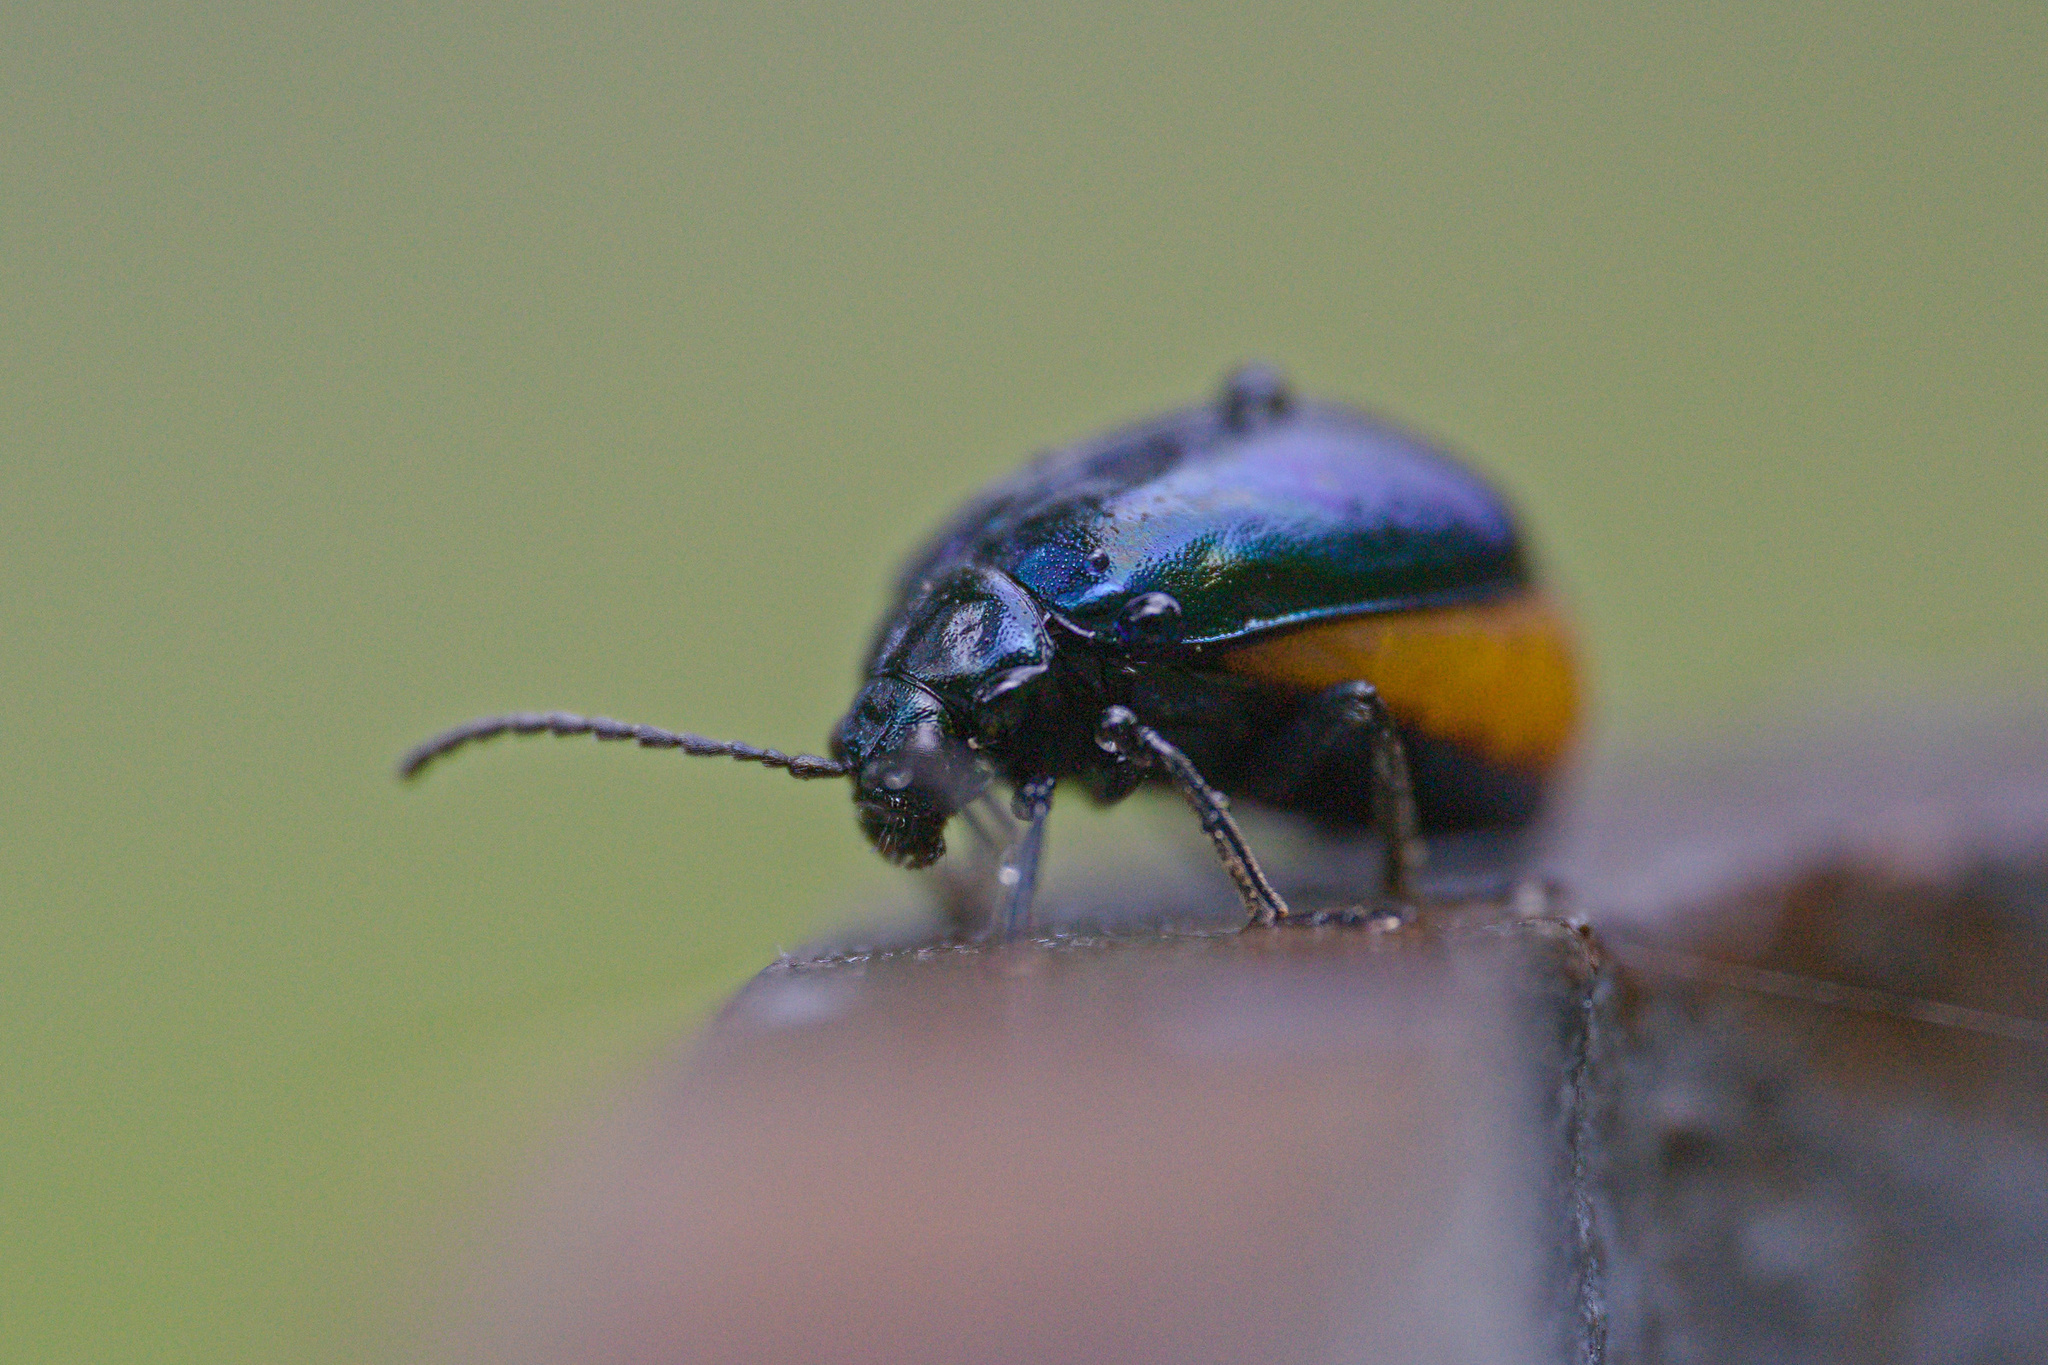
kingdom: Animalia
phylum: Arthropoda
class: Insecta
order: Coleoptera
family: Chrysomelidae
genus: Agelastica
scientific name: Agelastica alni
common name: Alder leaf beetle
